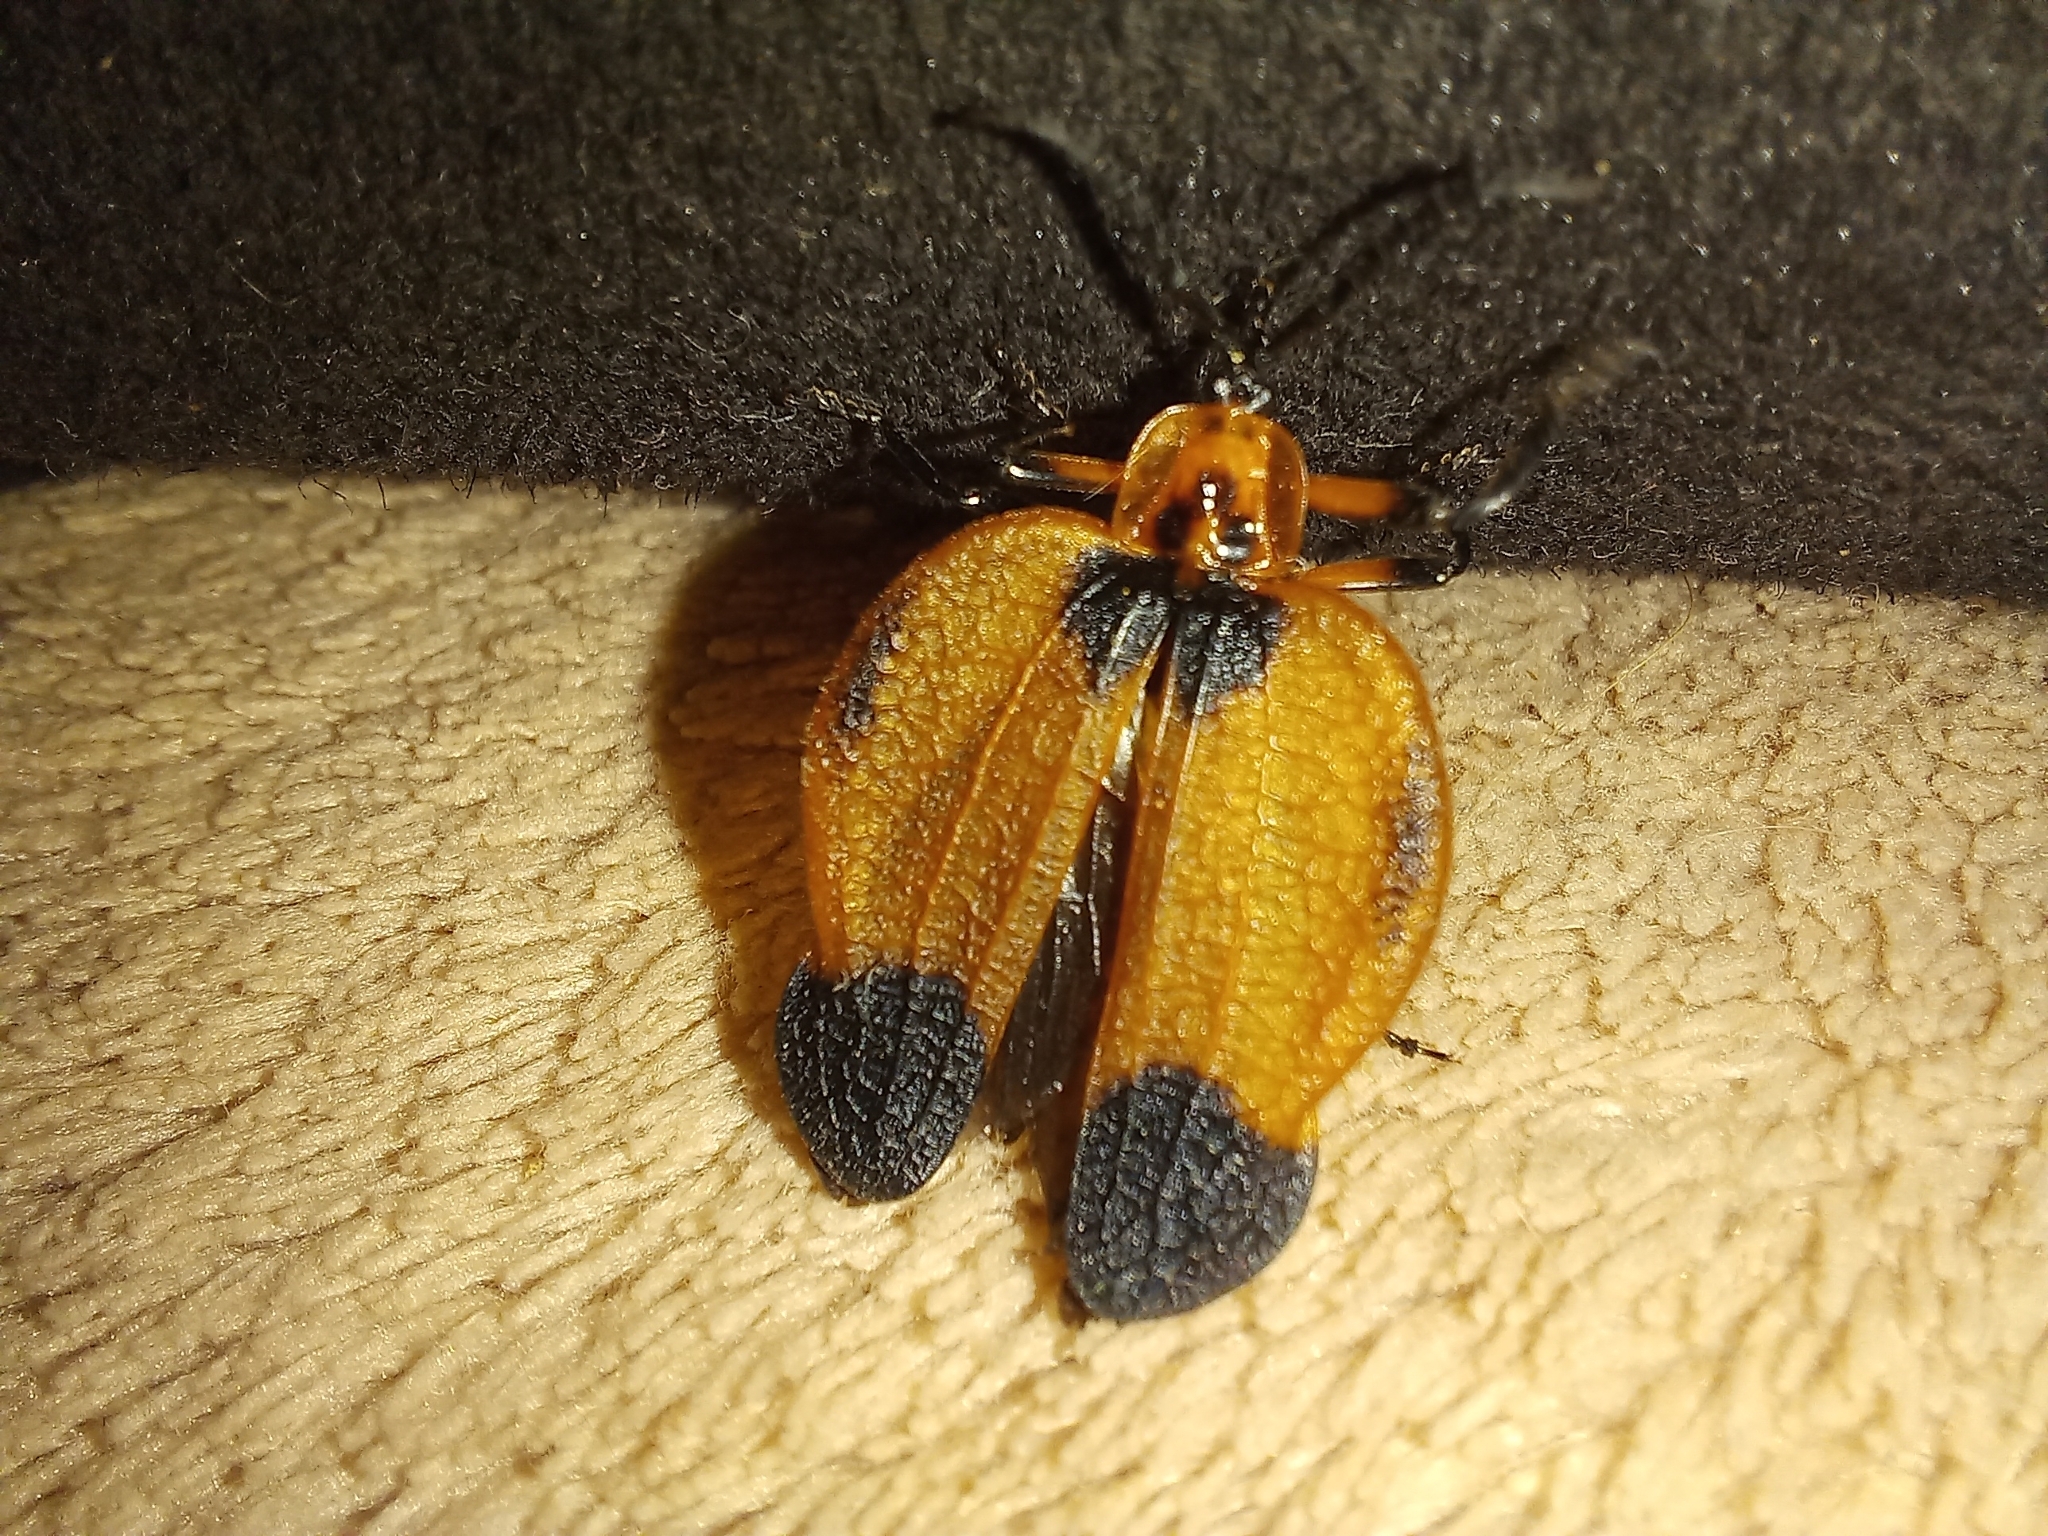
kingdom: Animalia
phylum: Arthropoda
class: Insecta
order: Coleoptera
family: Lycidae
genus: Lycus
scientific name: Lycus
